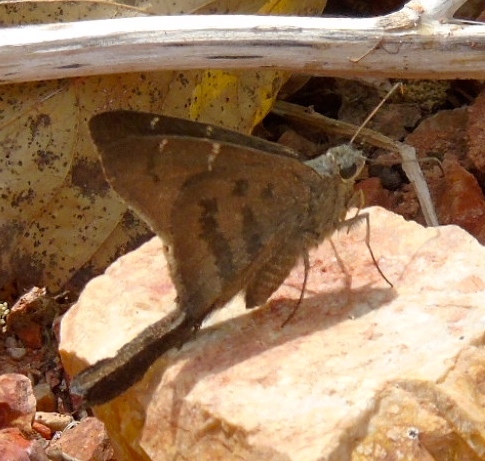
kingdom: Animalia
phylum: Arthropoda
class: Insecta
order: Lepidoptera
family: Hesperiidae
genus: Urbanus
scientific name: Urbanus procne
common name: Brown longtail
